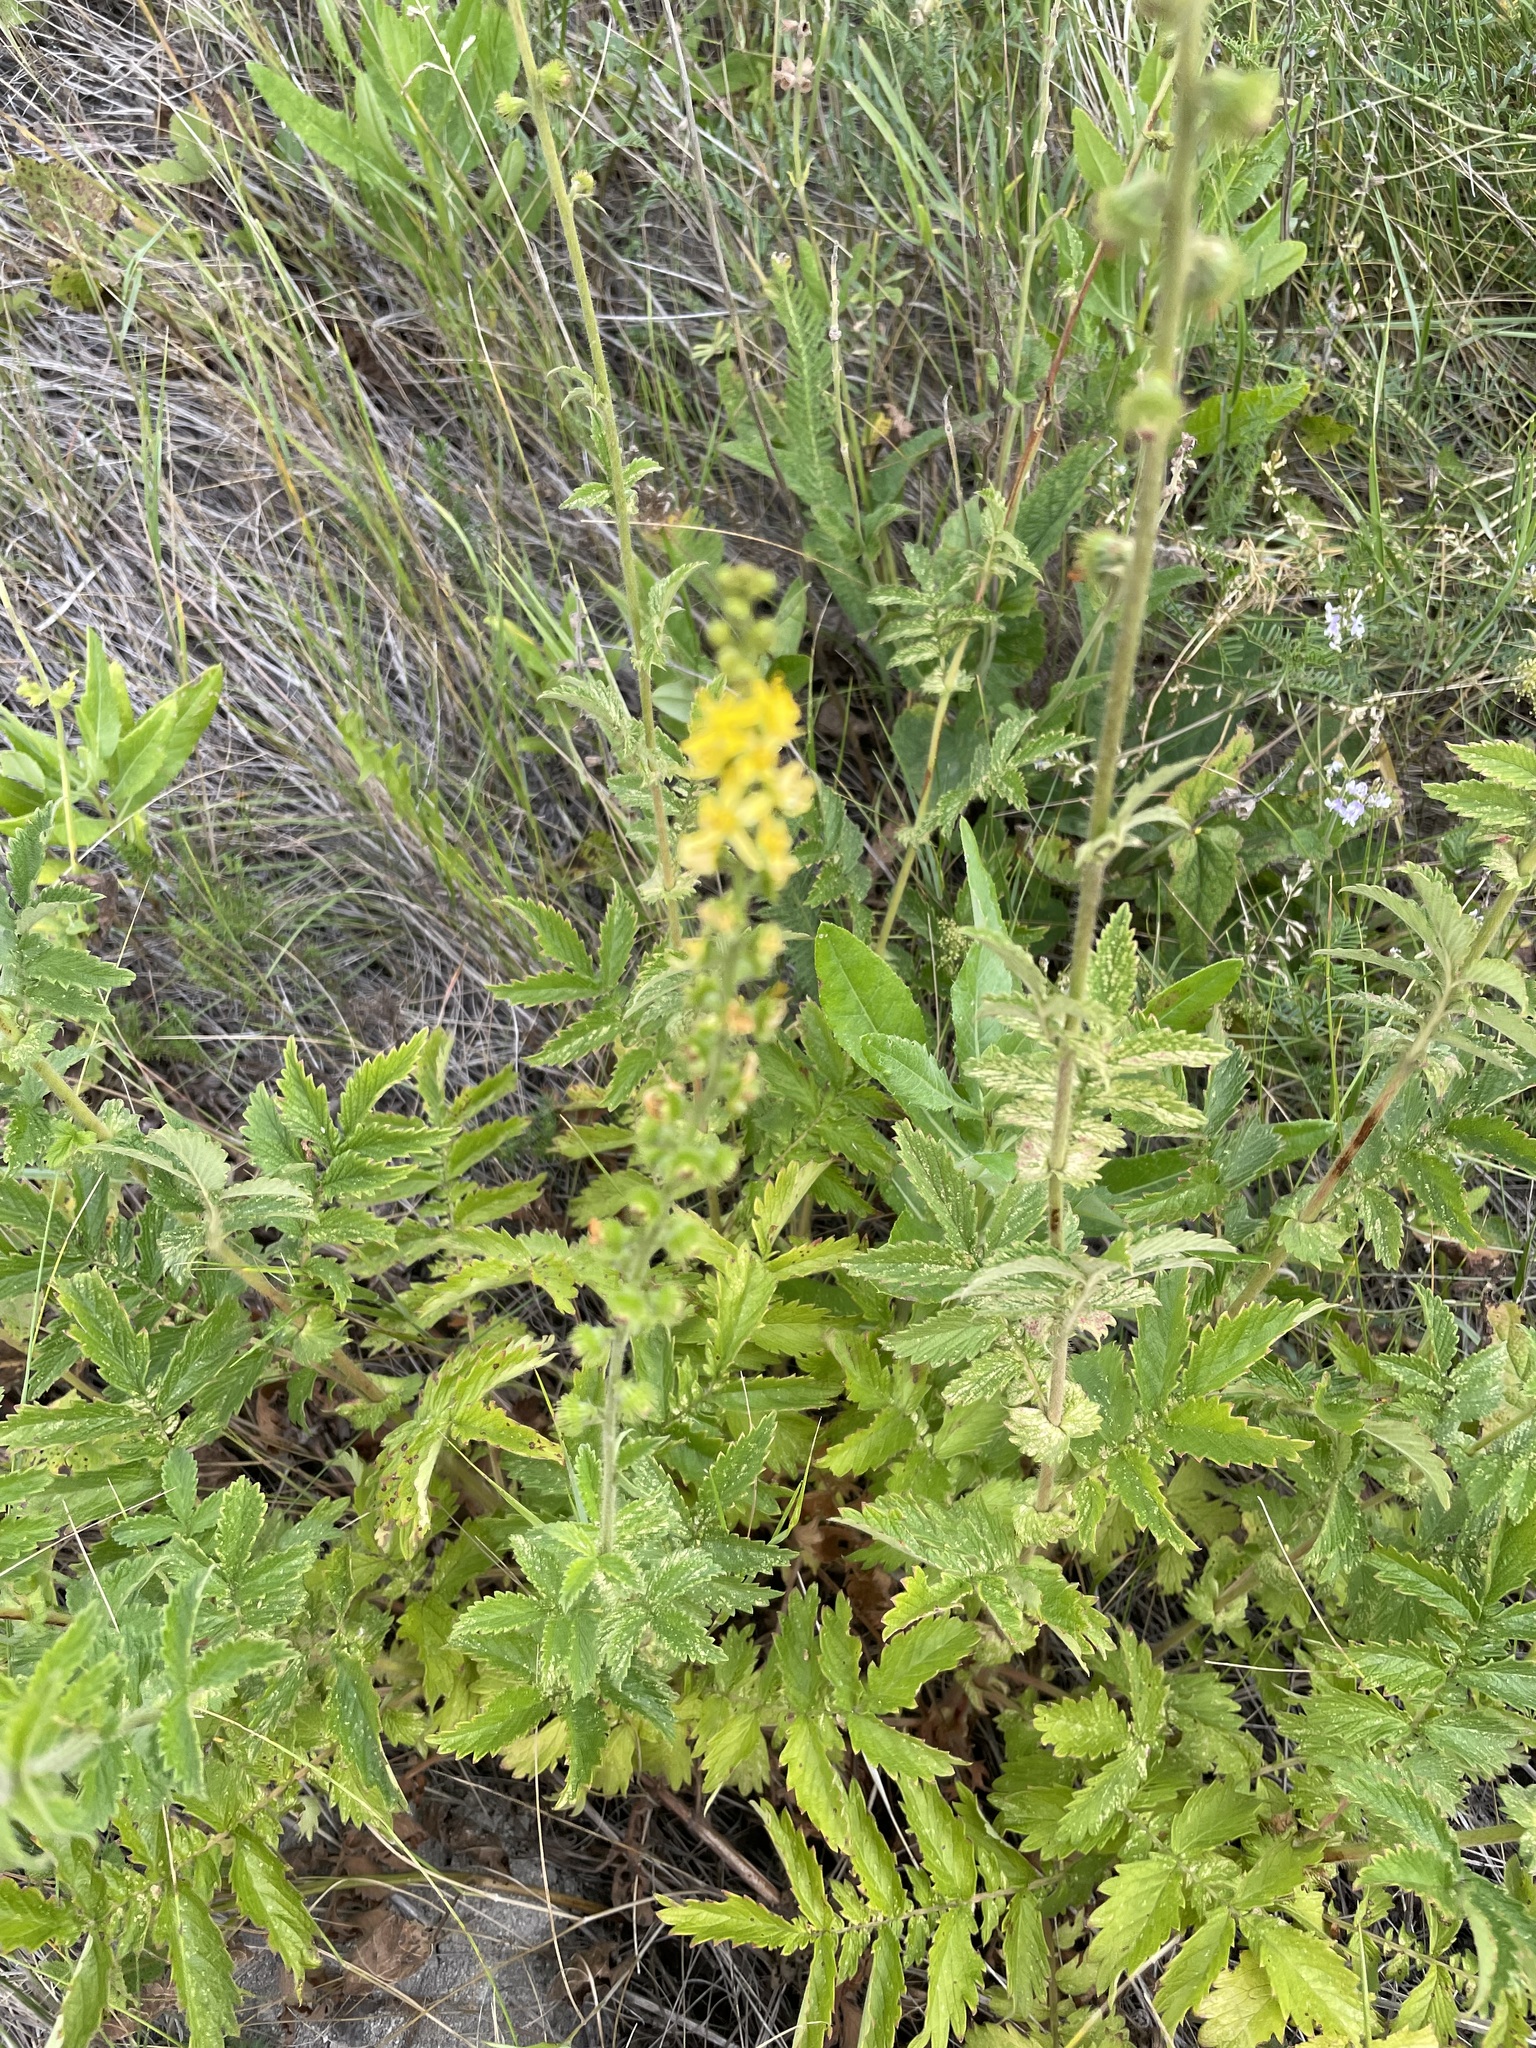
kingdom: Plantae
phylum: Tracheophyta
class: Magnoliopsida
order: Rosales
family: Rosaceae
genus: Agrimonia
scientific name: Agrimonia eupatoria
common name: Agrimony
